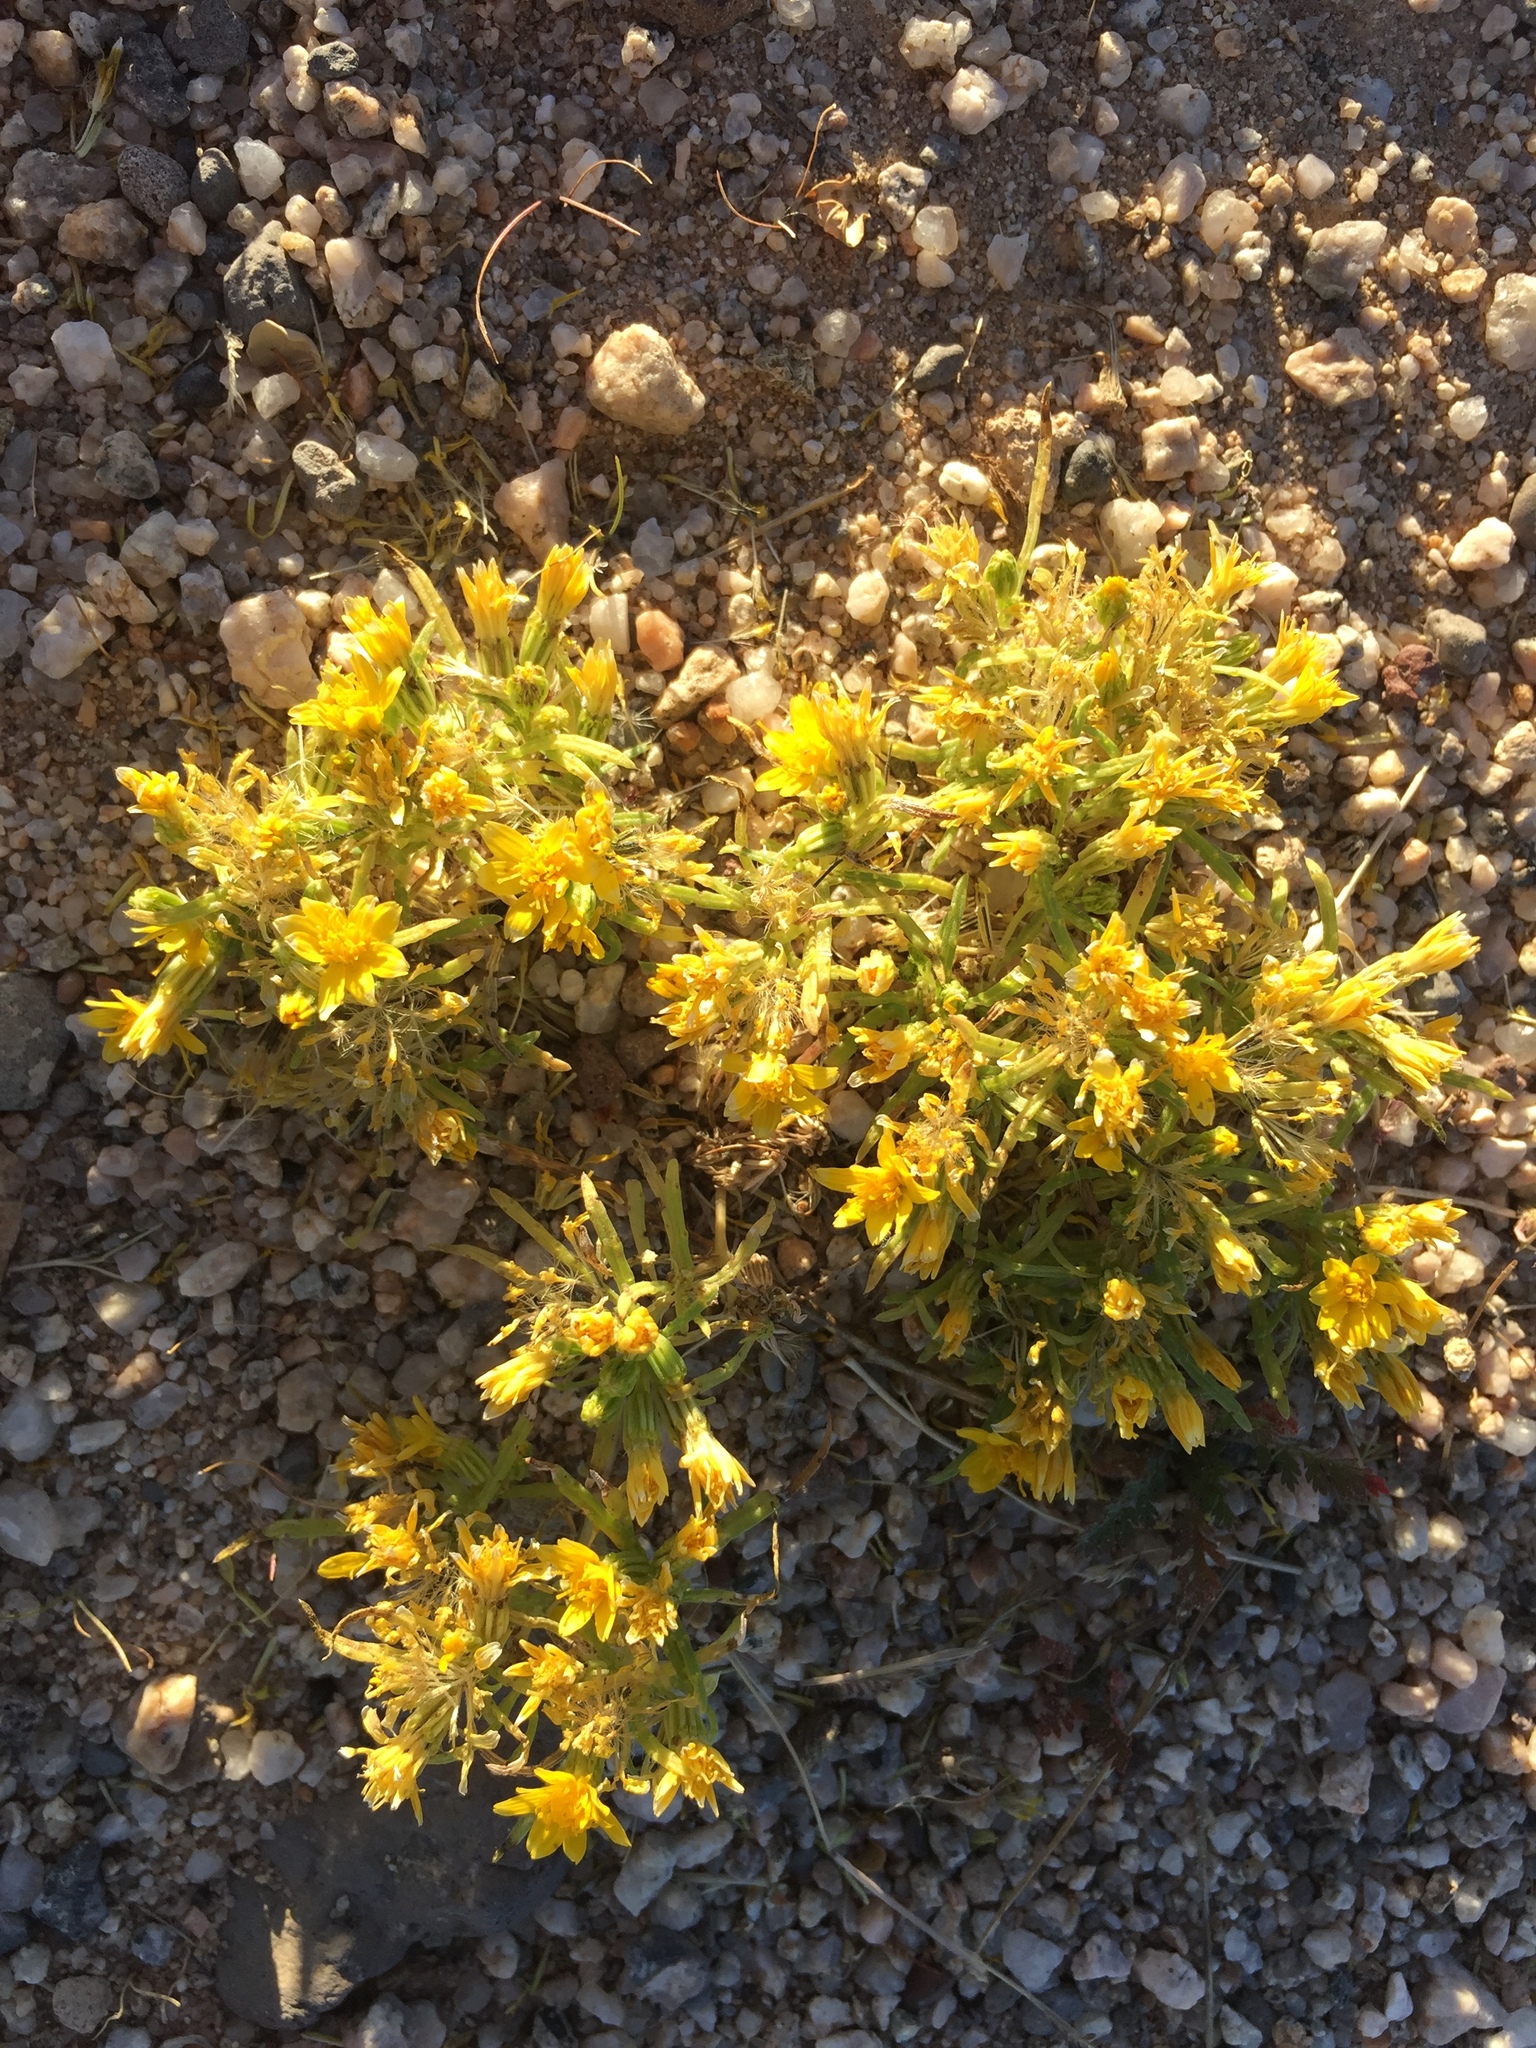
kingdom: Plantae
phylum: Tracheophyta
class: Magnoliopsida
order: Asterales
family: Asteraceae
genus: Pectis
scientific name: Pectis papposa
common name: Many-bristle chinchweed
